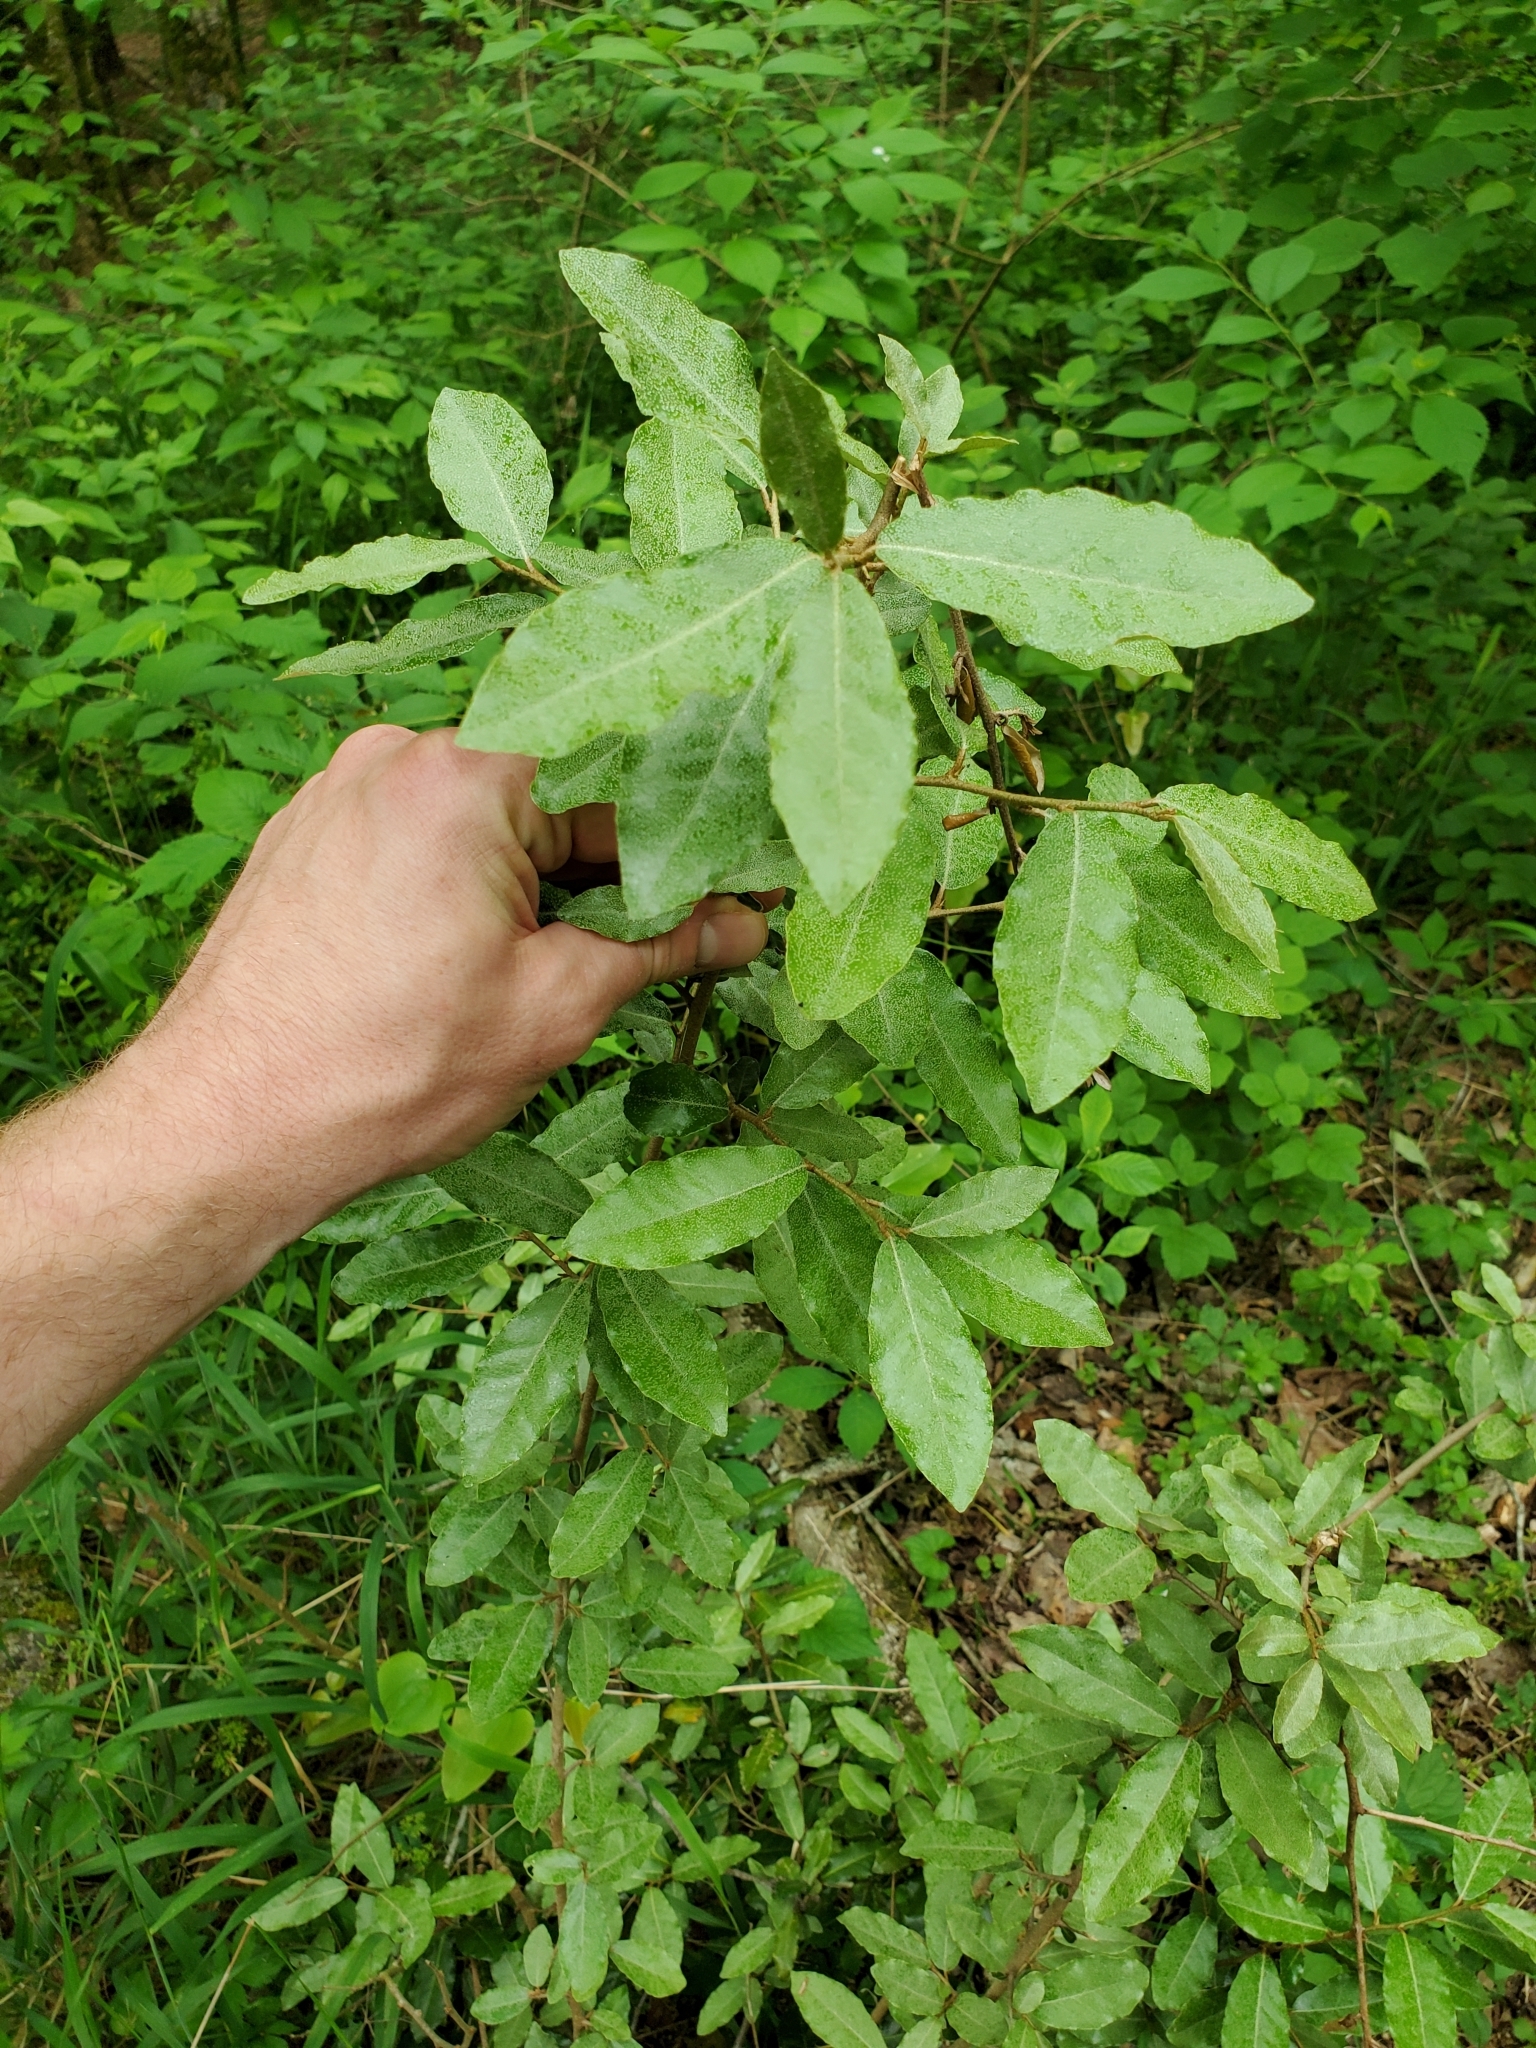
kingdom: Plantae
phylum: Tracheophyta
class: Magnoliopsida
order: Rosales
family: Elaeagnaceae
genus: Elaeagnus
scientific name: Elaeagnus umbellata
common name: Autumn olive
